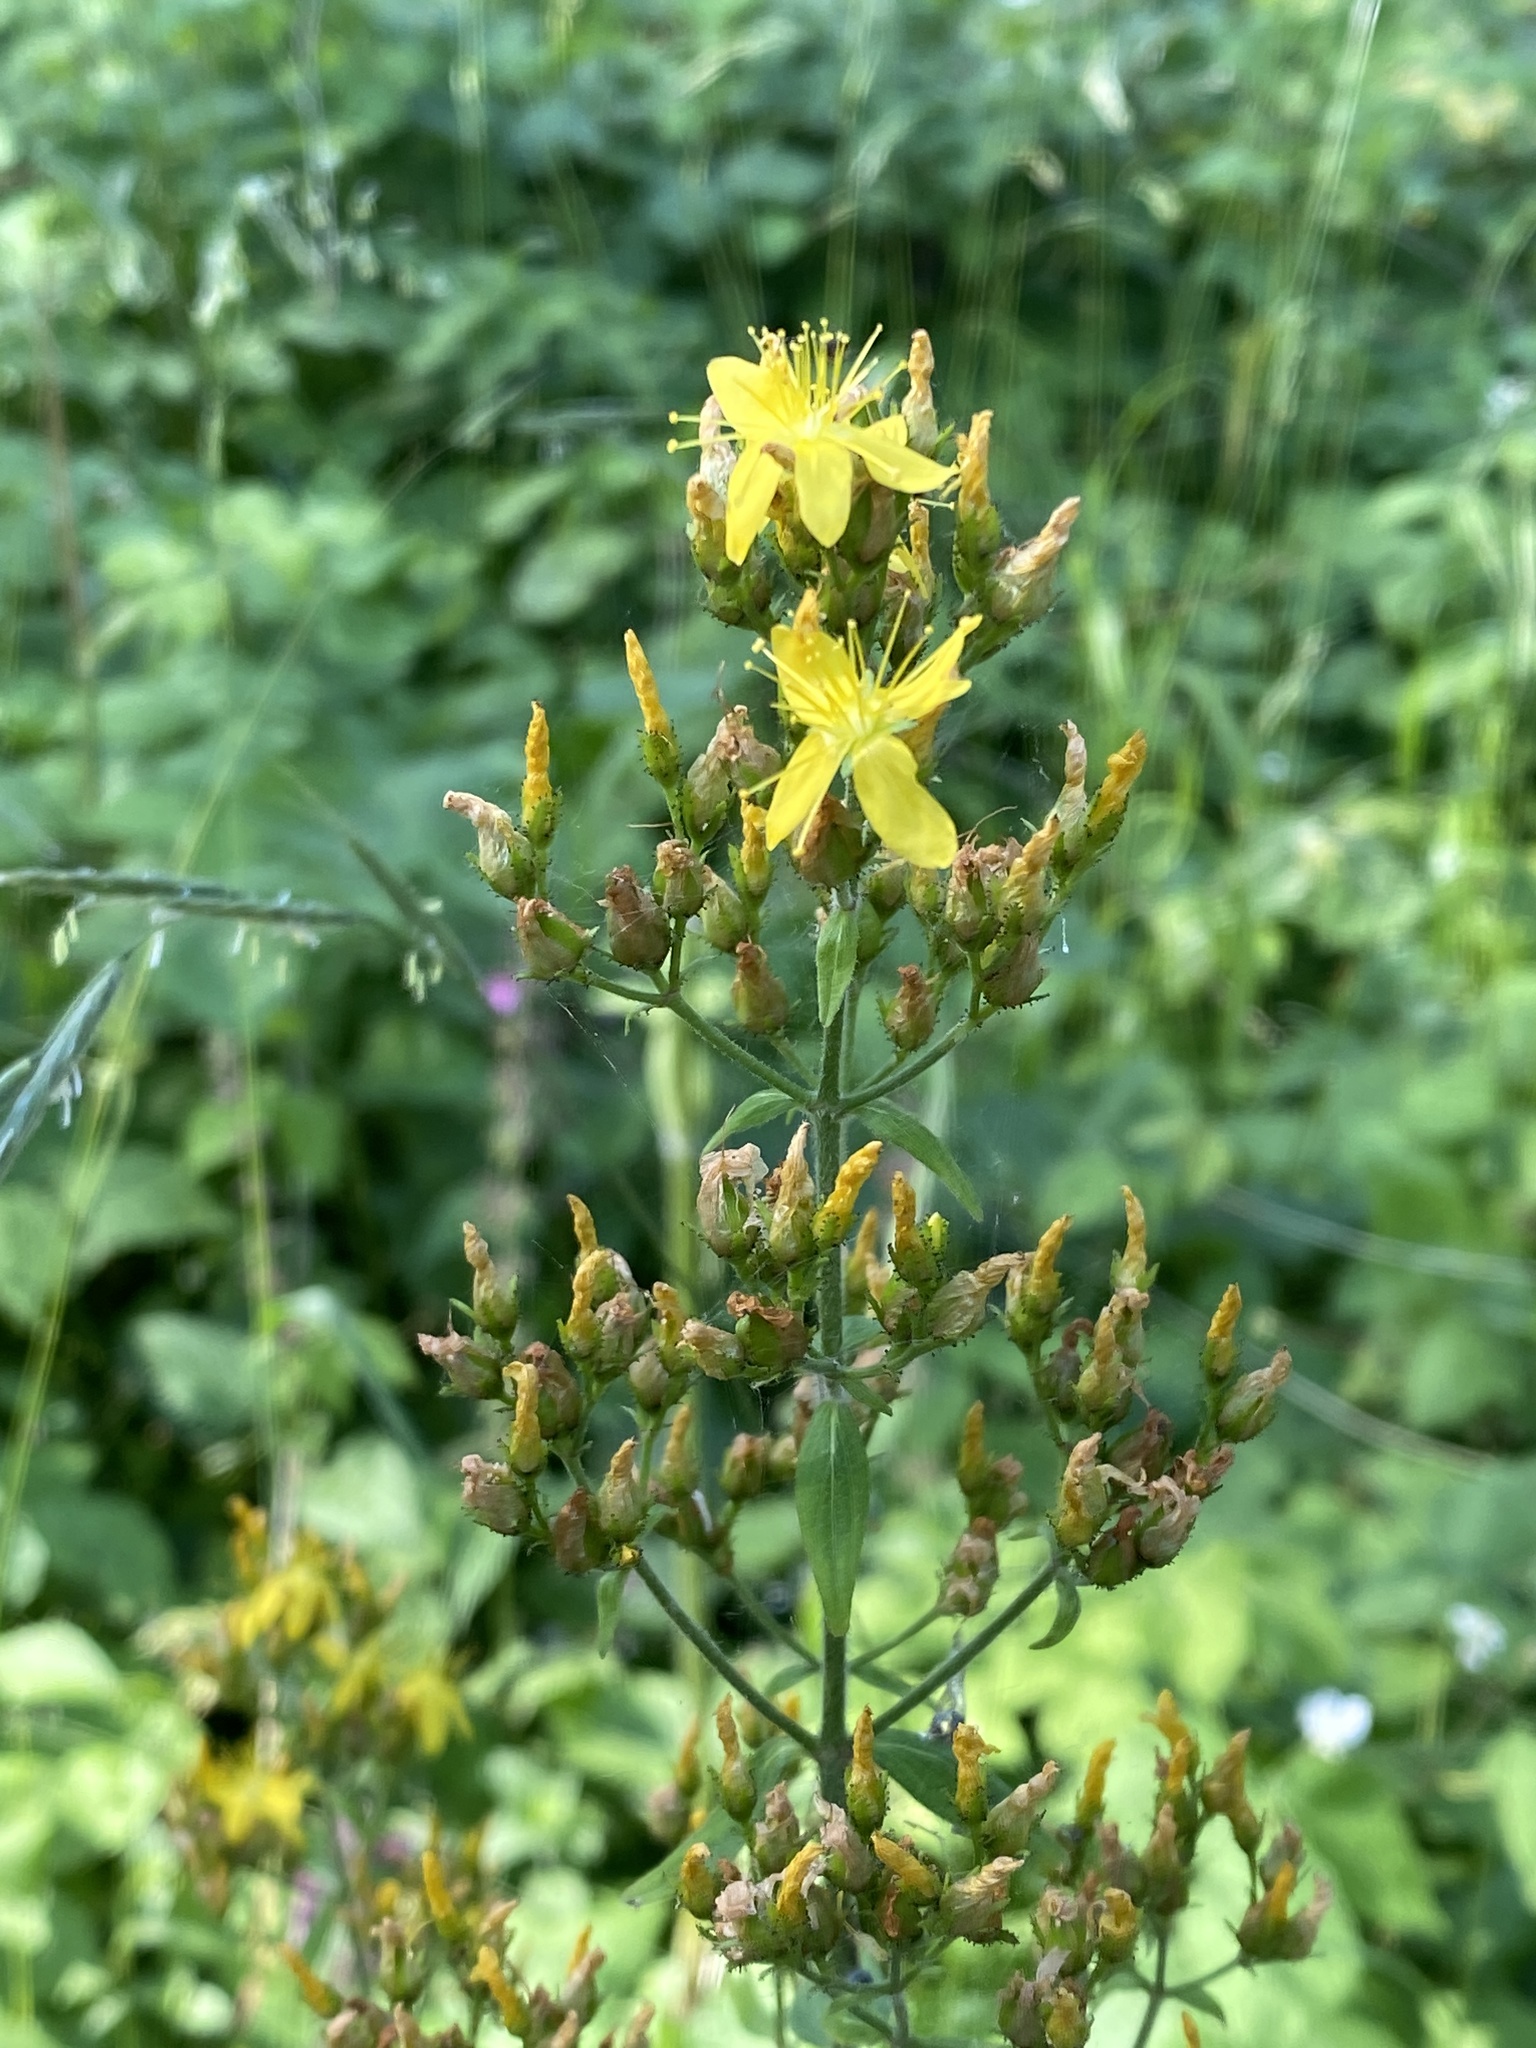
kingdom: Plantae
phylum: Tracheophyta
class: Magnoliopsida
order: Malpighiales
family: Hypericaceae
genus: Hypericum
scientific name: Hypericum hirsutum
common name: Hairy st. john's-wort
